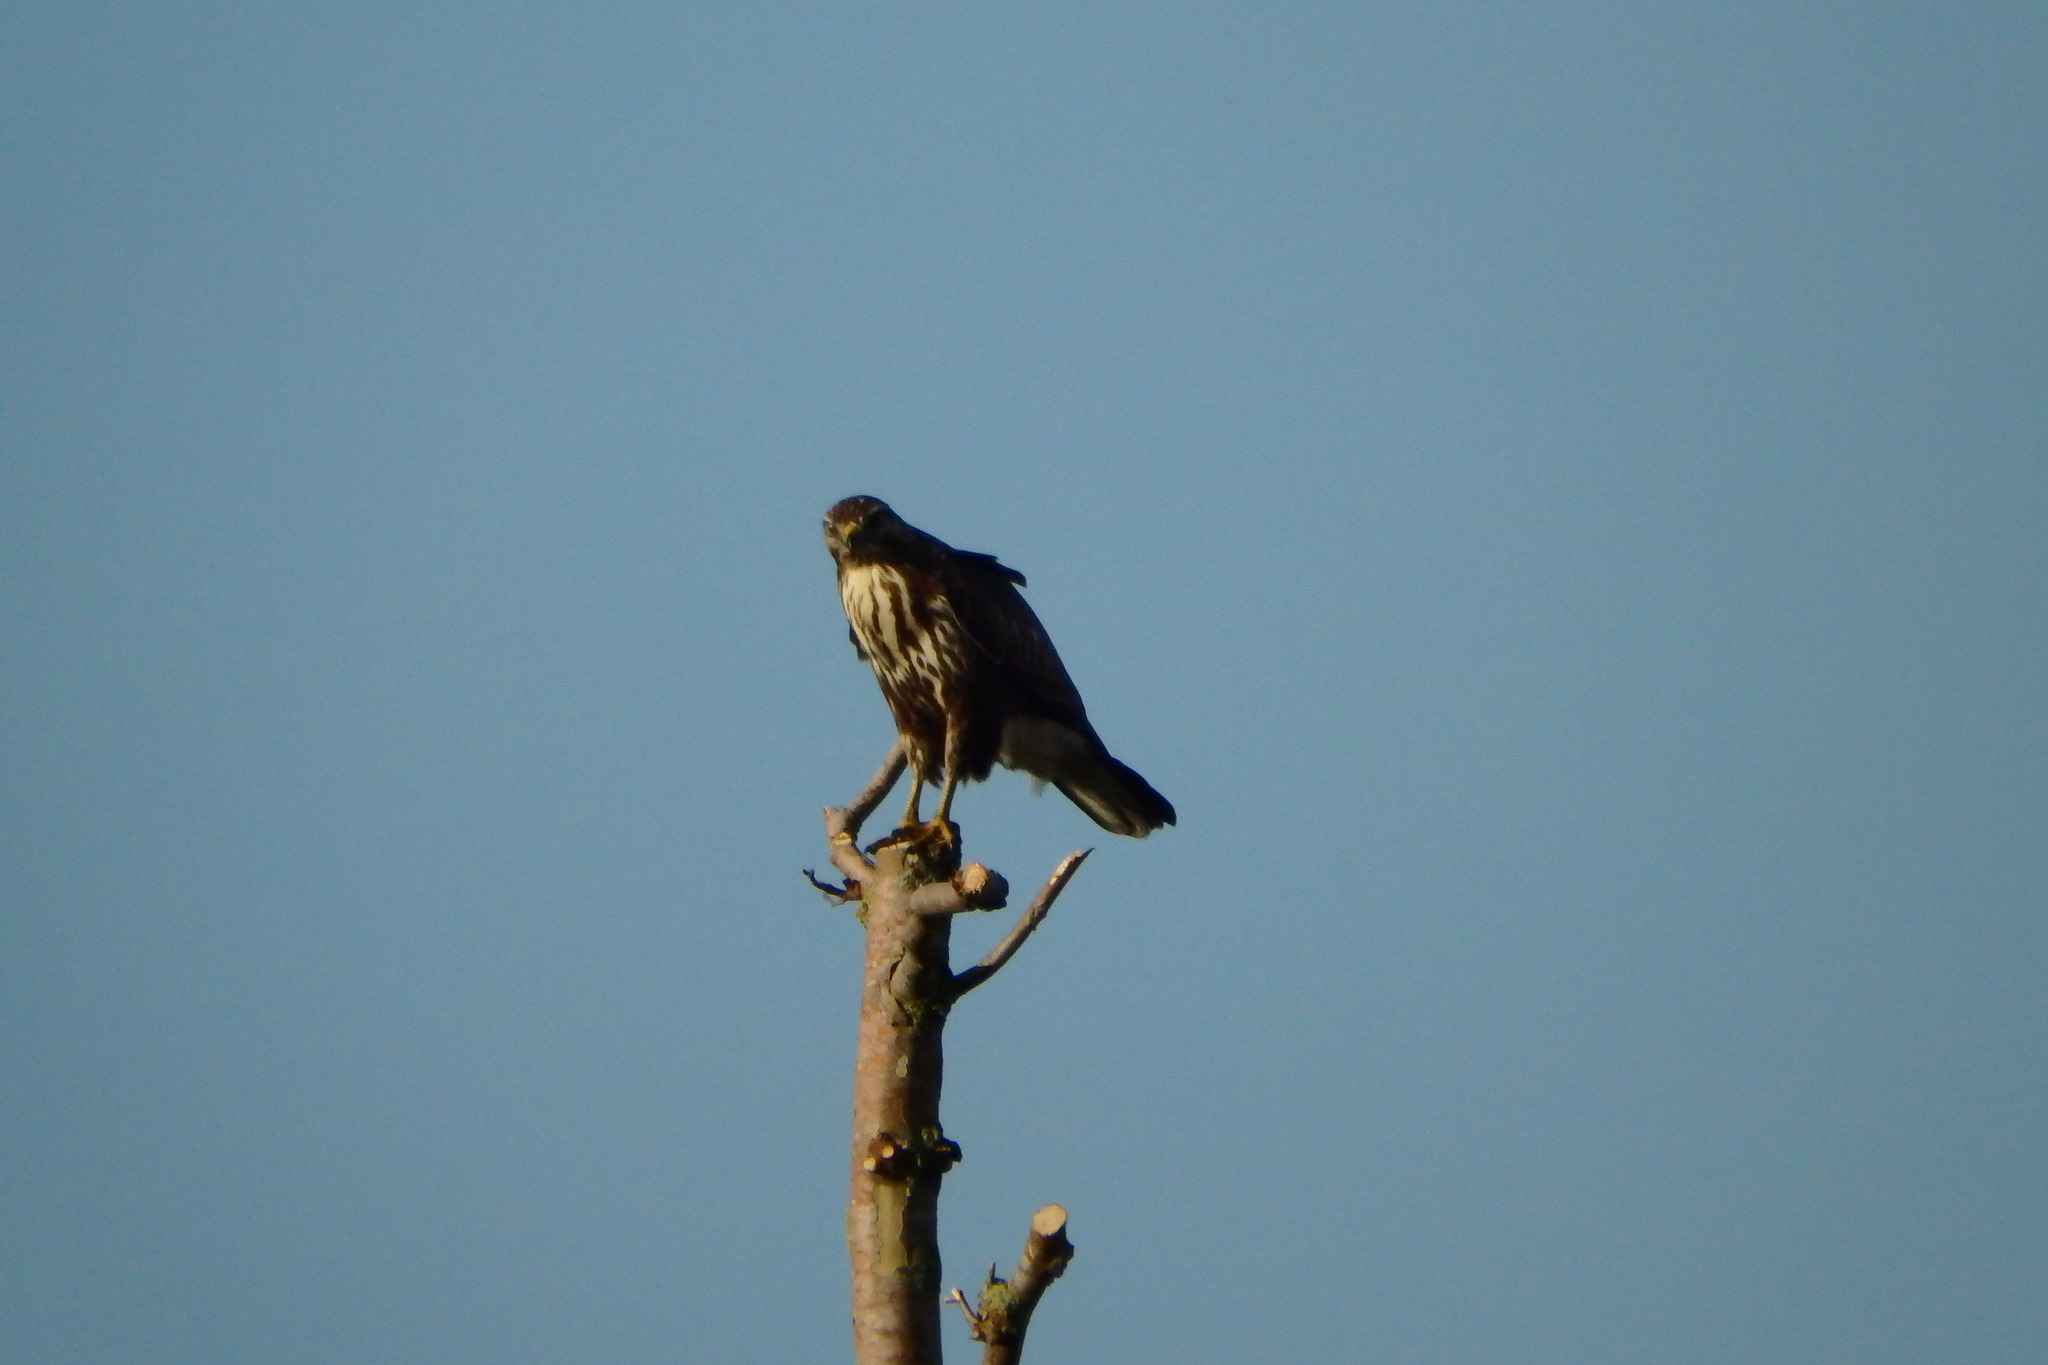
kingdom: Animalia
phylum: Chordata
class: Aves
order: Accipitriformes
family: Accipitridae
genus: Buteo
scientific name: Buteo buteo
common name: Common buzzard
